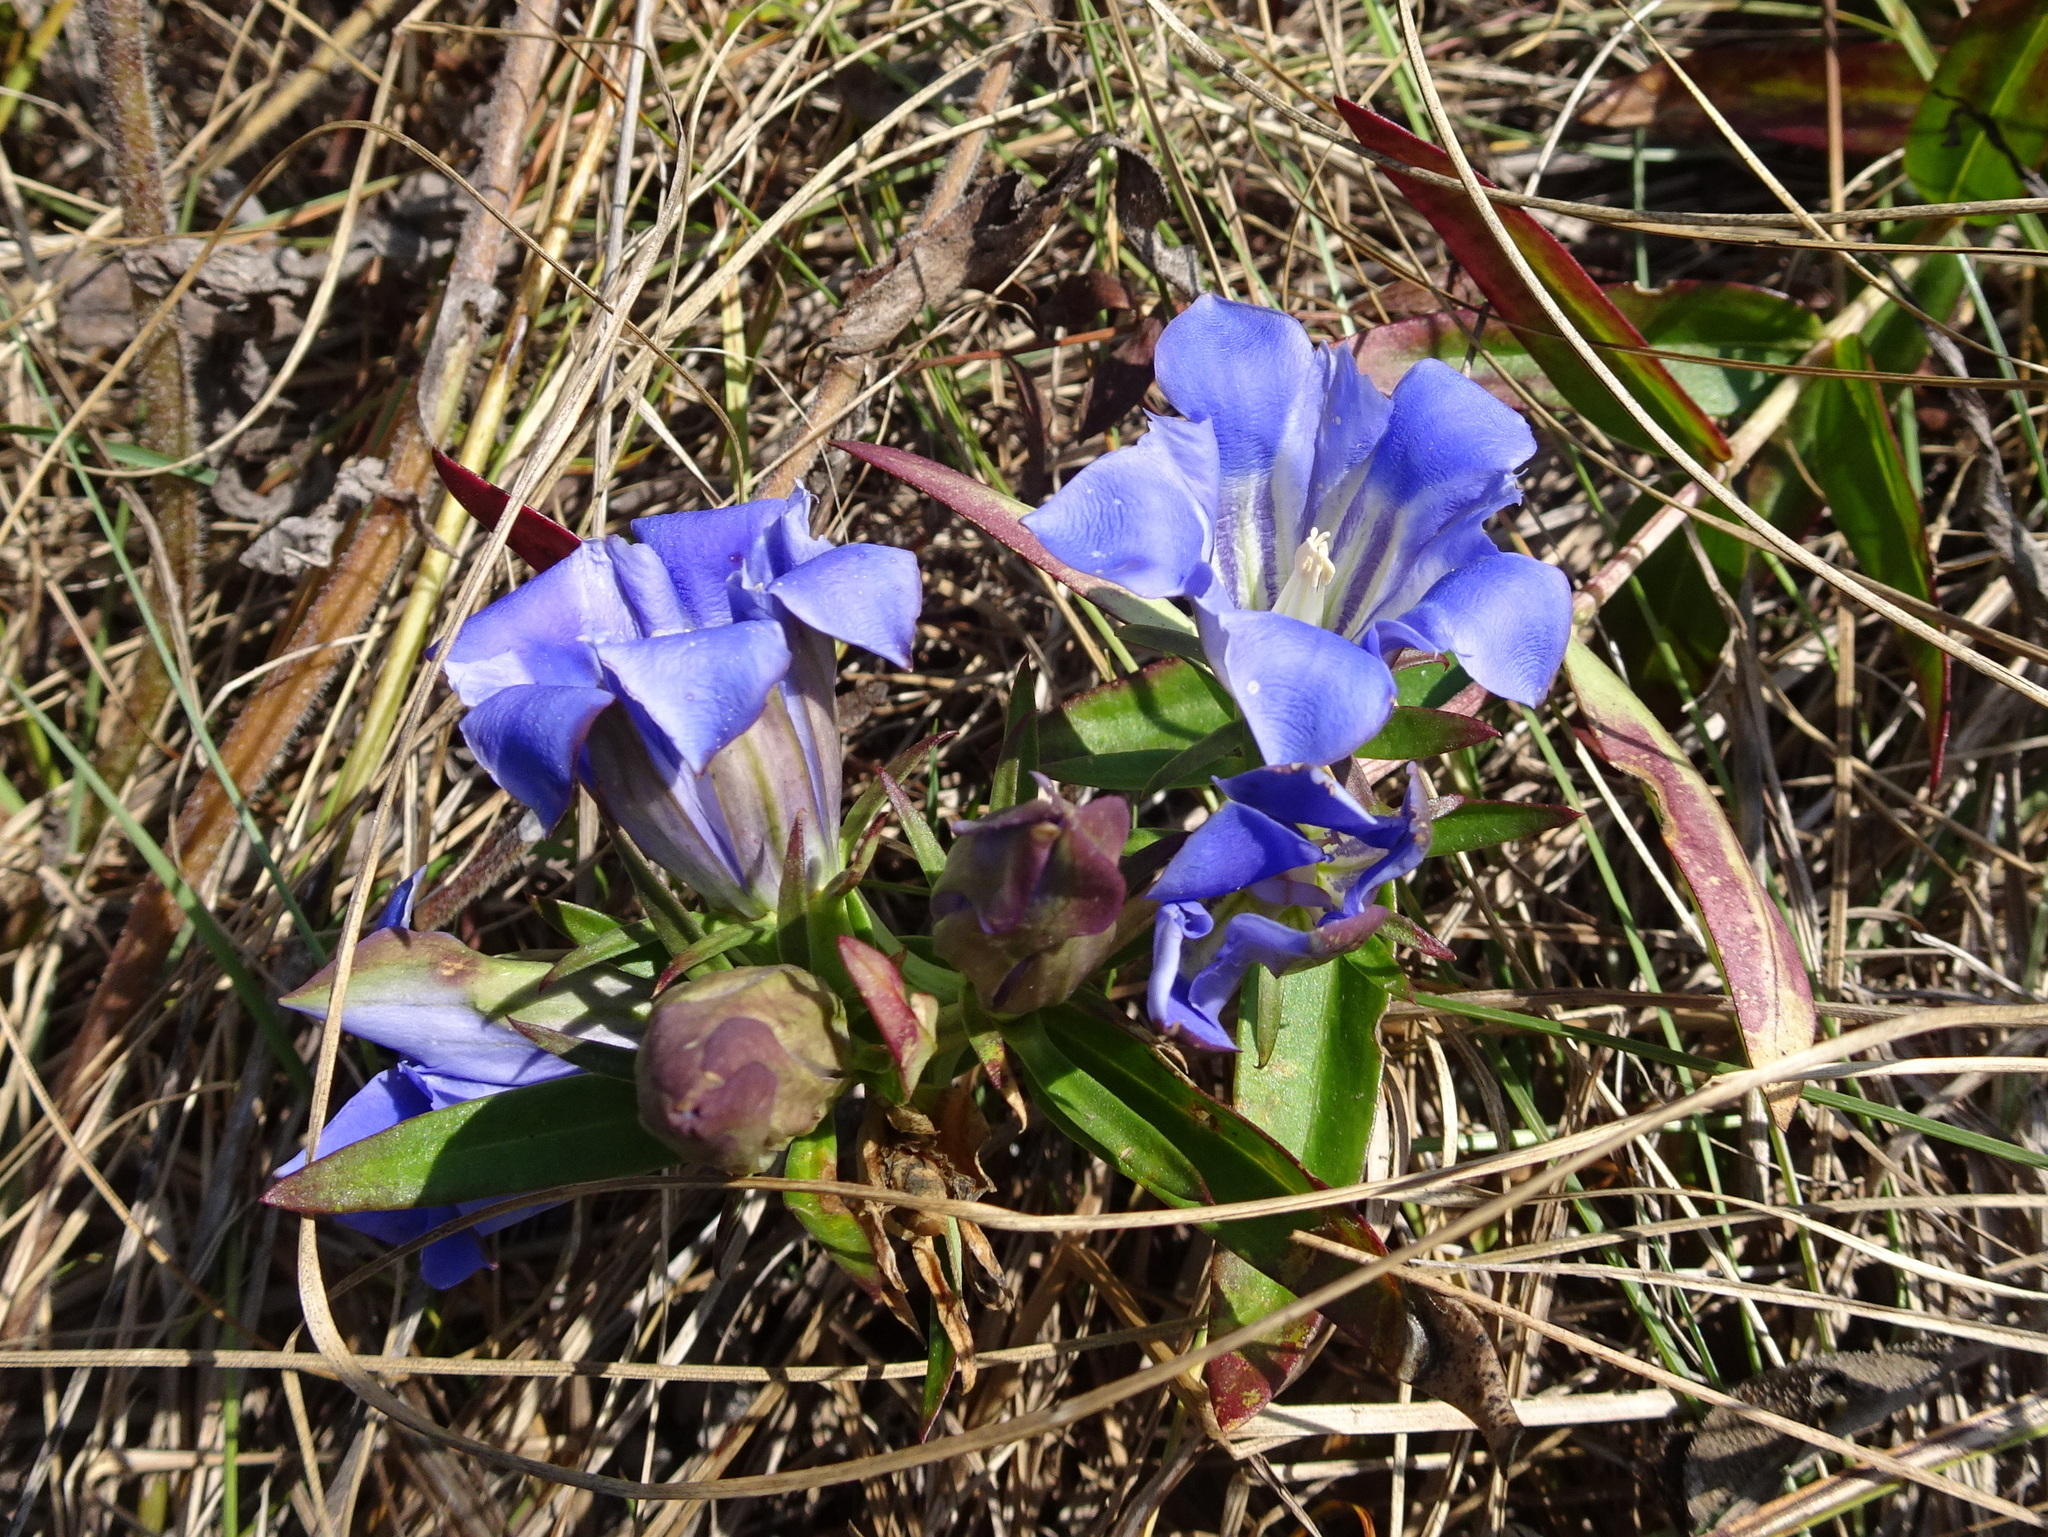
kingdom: Plantae
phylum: Tracheophyta
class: Magnoliopsida
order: Gentianales
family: Gentianaceae
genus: Gentiana
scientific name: Gentiana puberulenta
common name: Downy gentian
